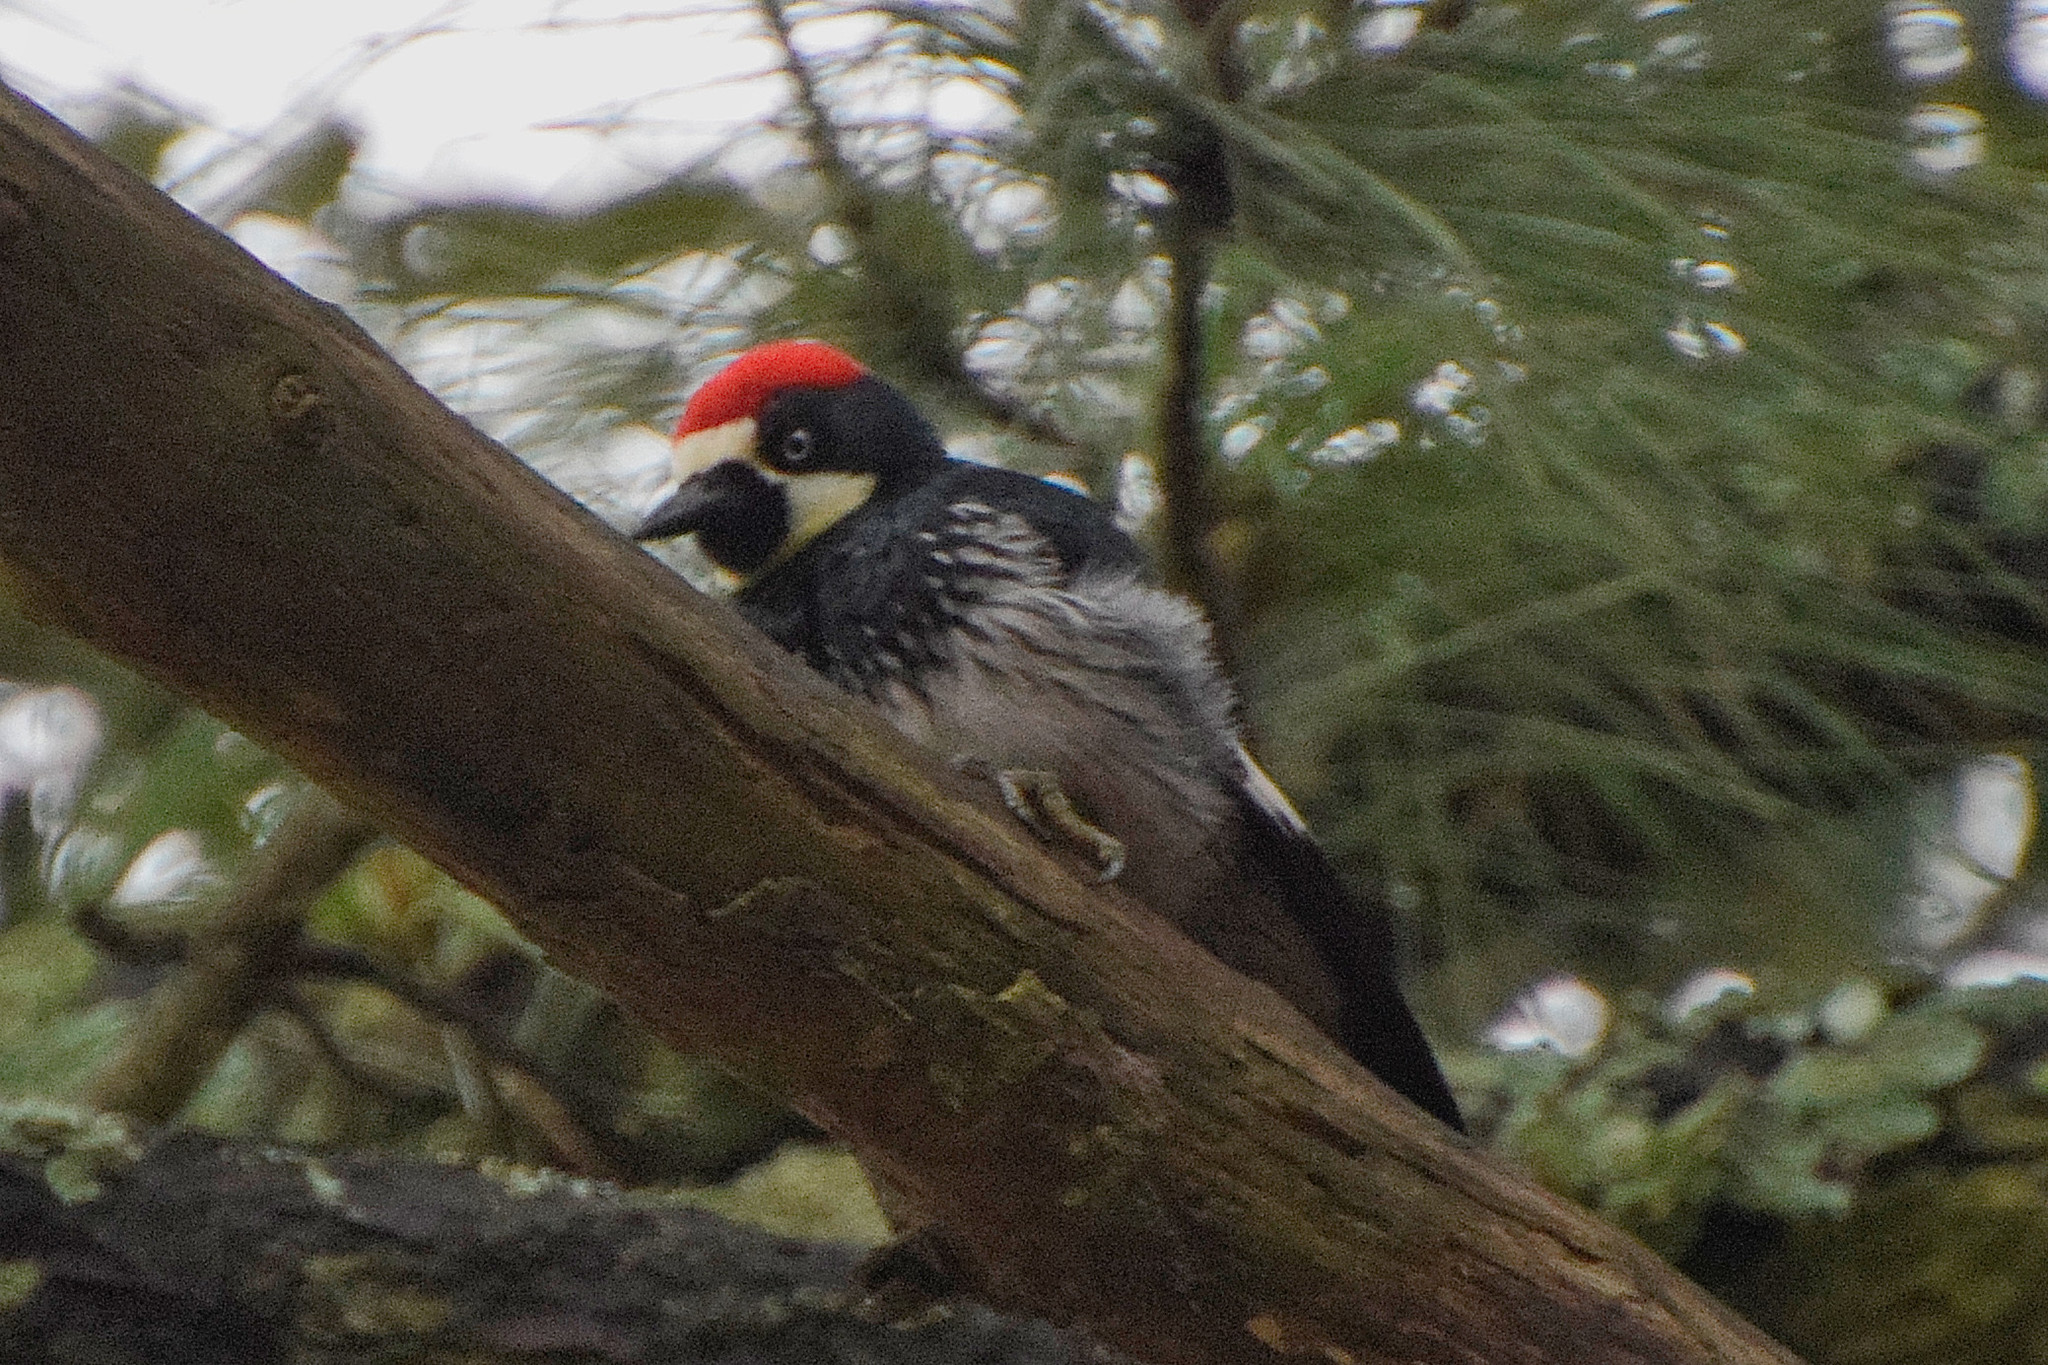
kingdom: Animalia
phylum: Chordata
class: Aves
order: Piciformes
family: Picidae
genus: Melanerpes
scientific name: Melanerpes formicivorus
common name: Acorn woodpecker
